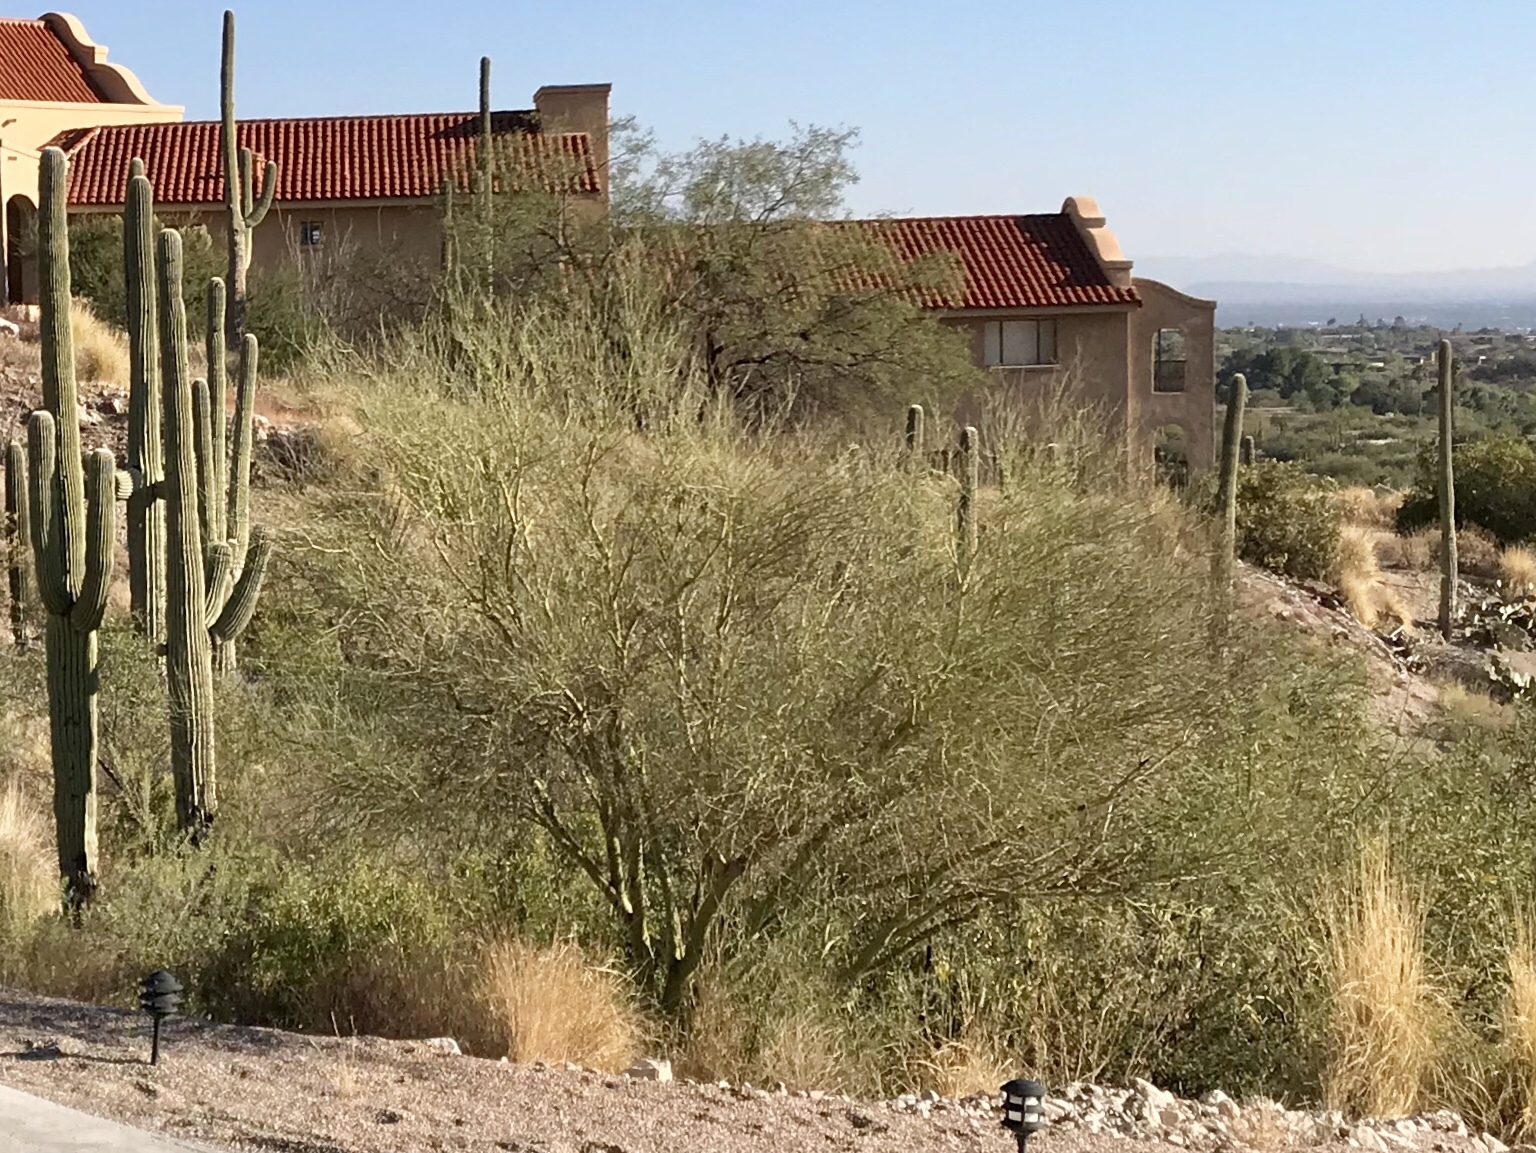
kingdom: Plantae
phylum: Tracheophyta
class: Magnoliopsida
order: Fabales
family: Fabaceae
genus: Parkinsonia
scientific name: Parkinsonia microphylla
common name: Yellow paloverde
